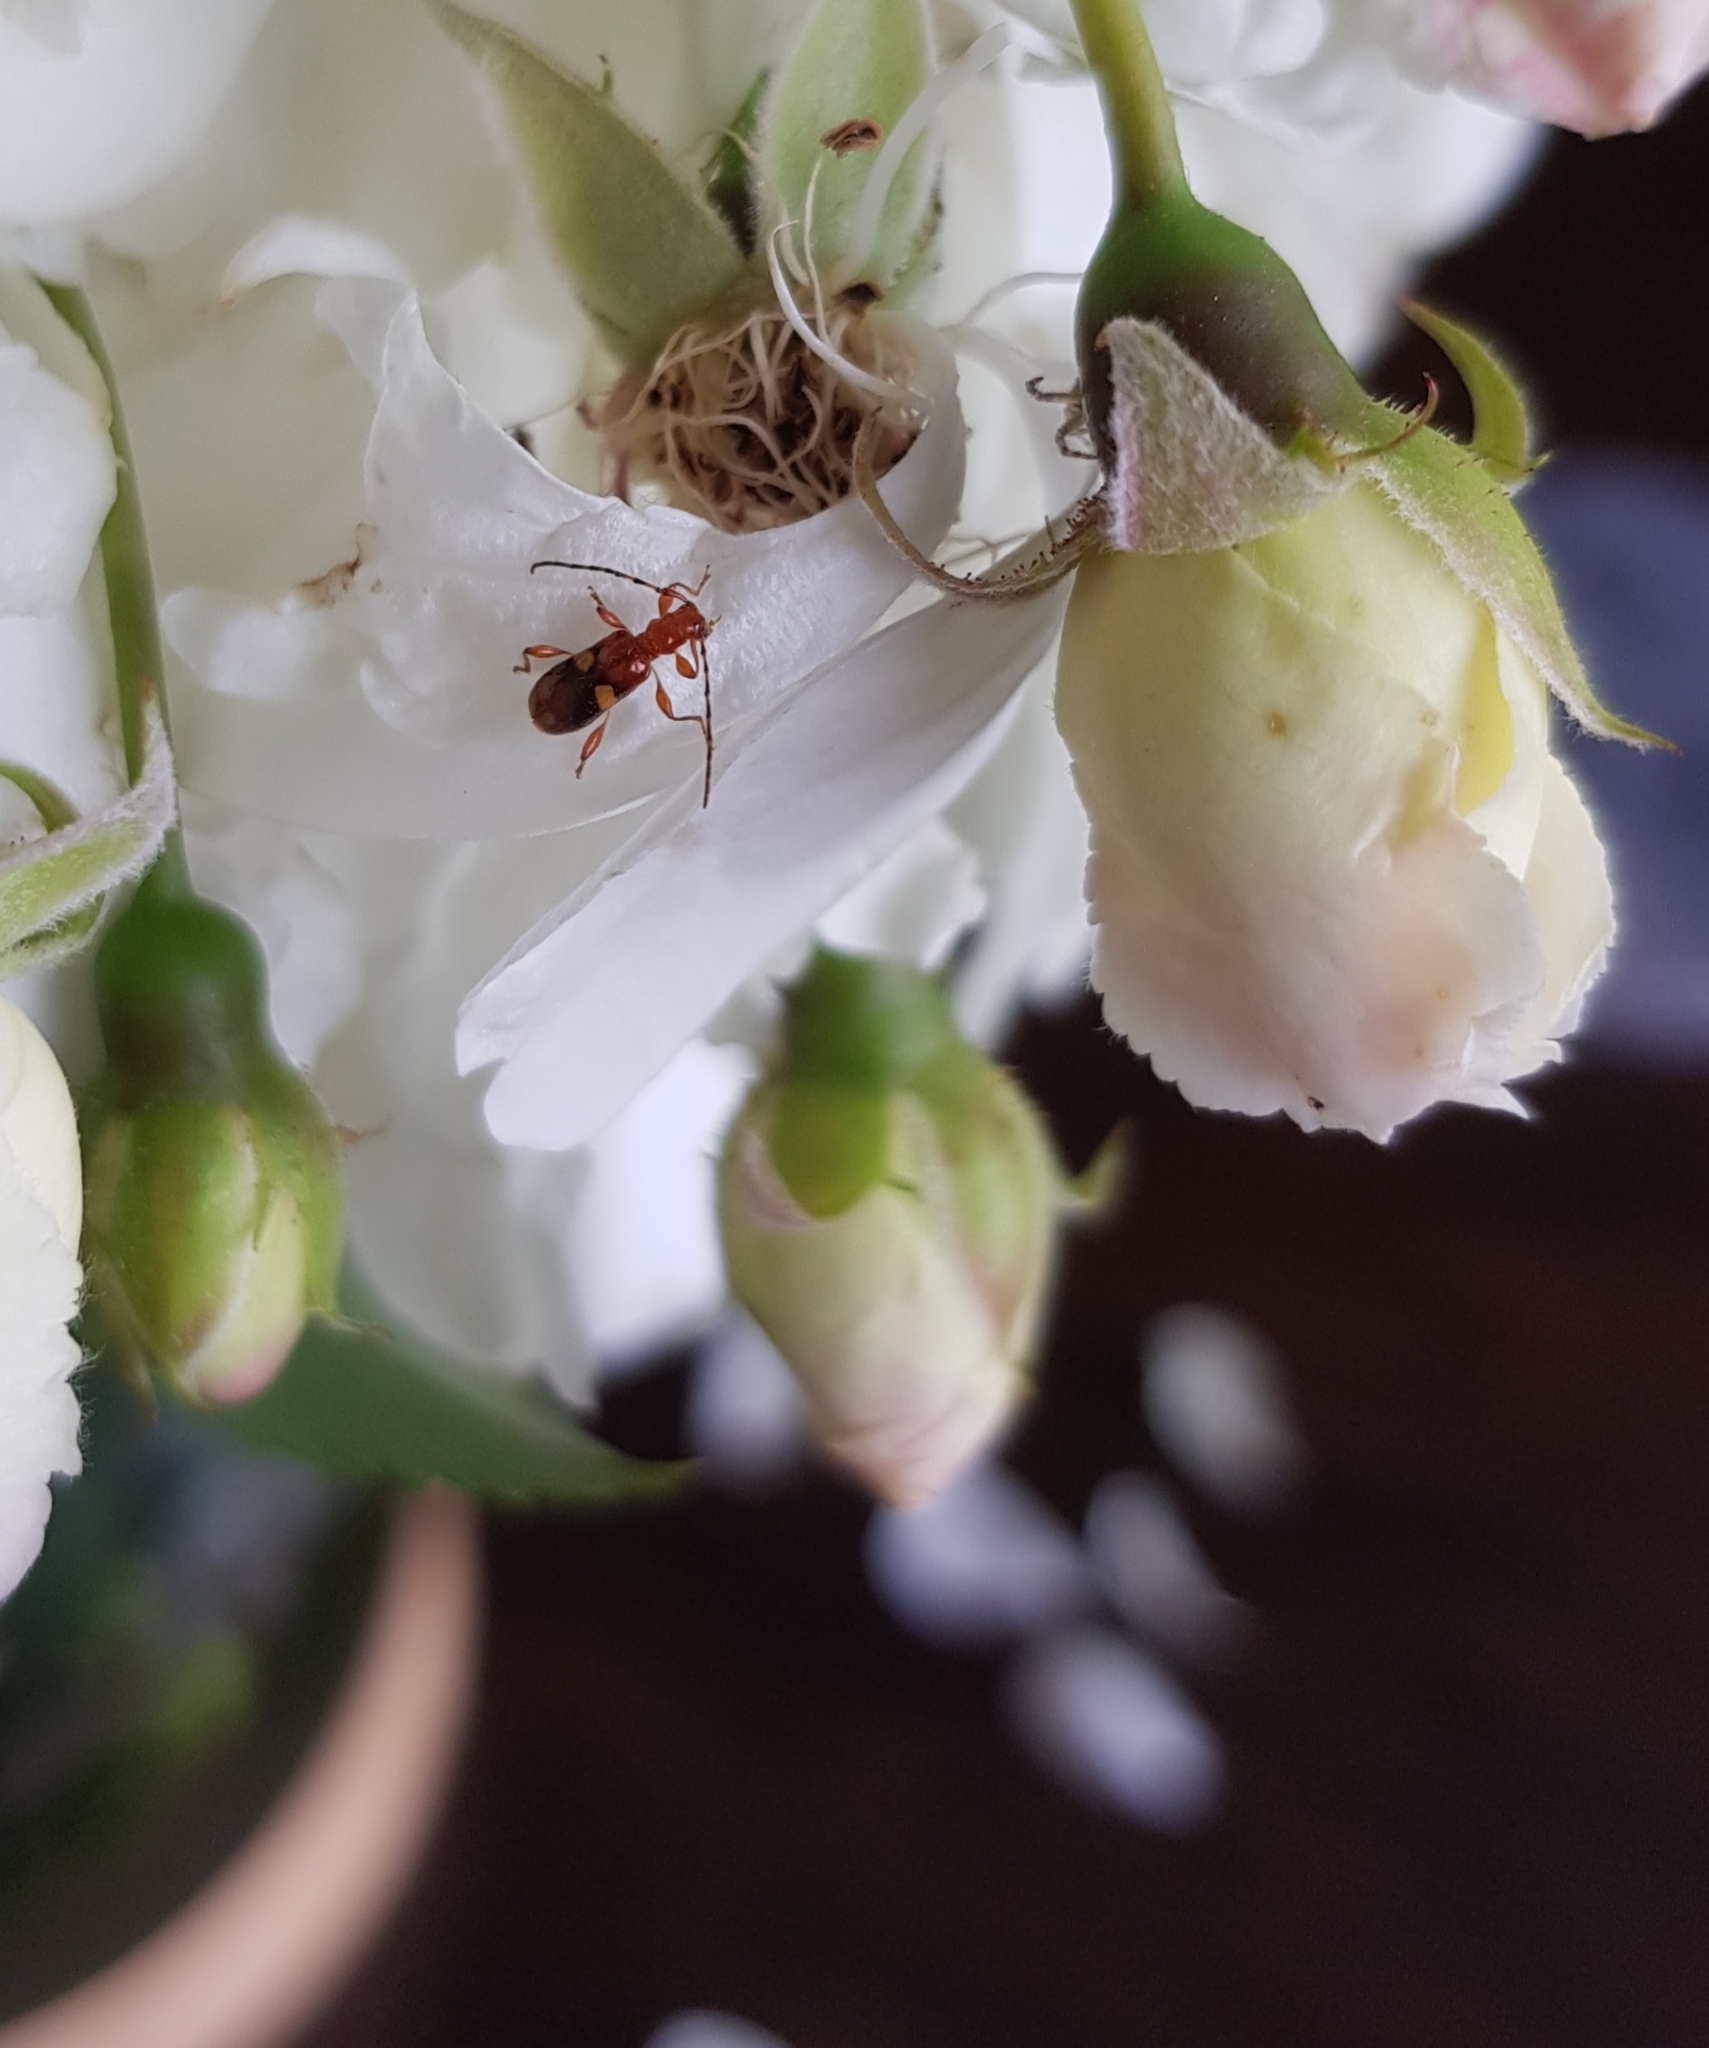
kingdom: Animalia
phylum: Arthropoda
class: Insecta
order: Coleoptera
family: Cerambycidae
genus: Zorion
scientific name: Zorion australe
